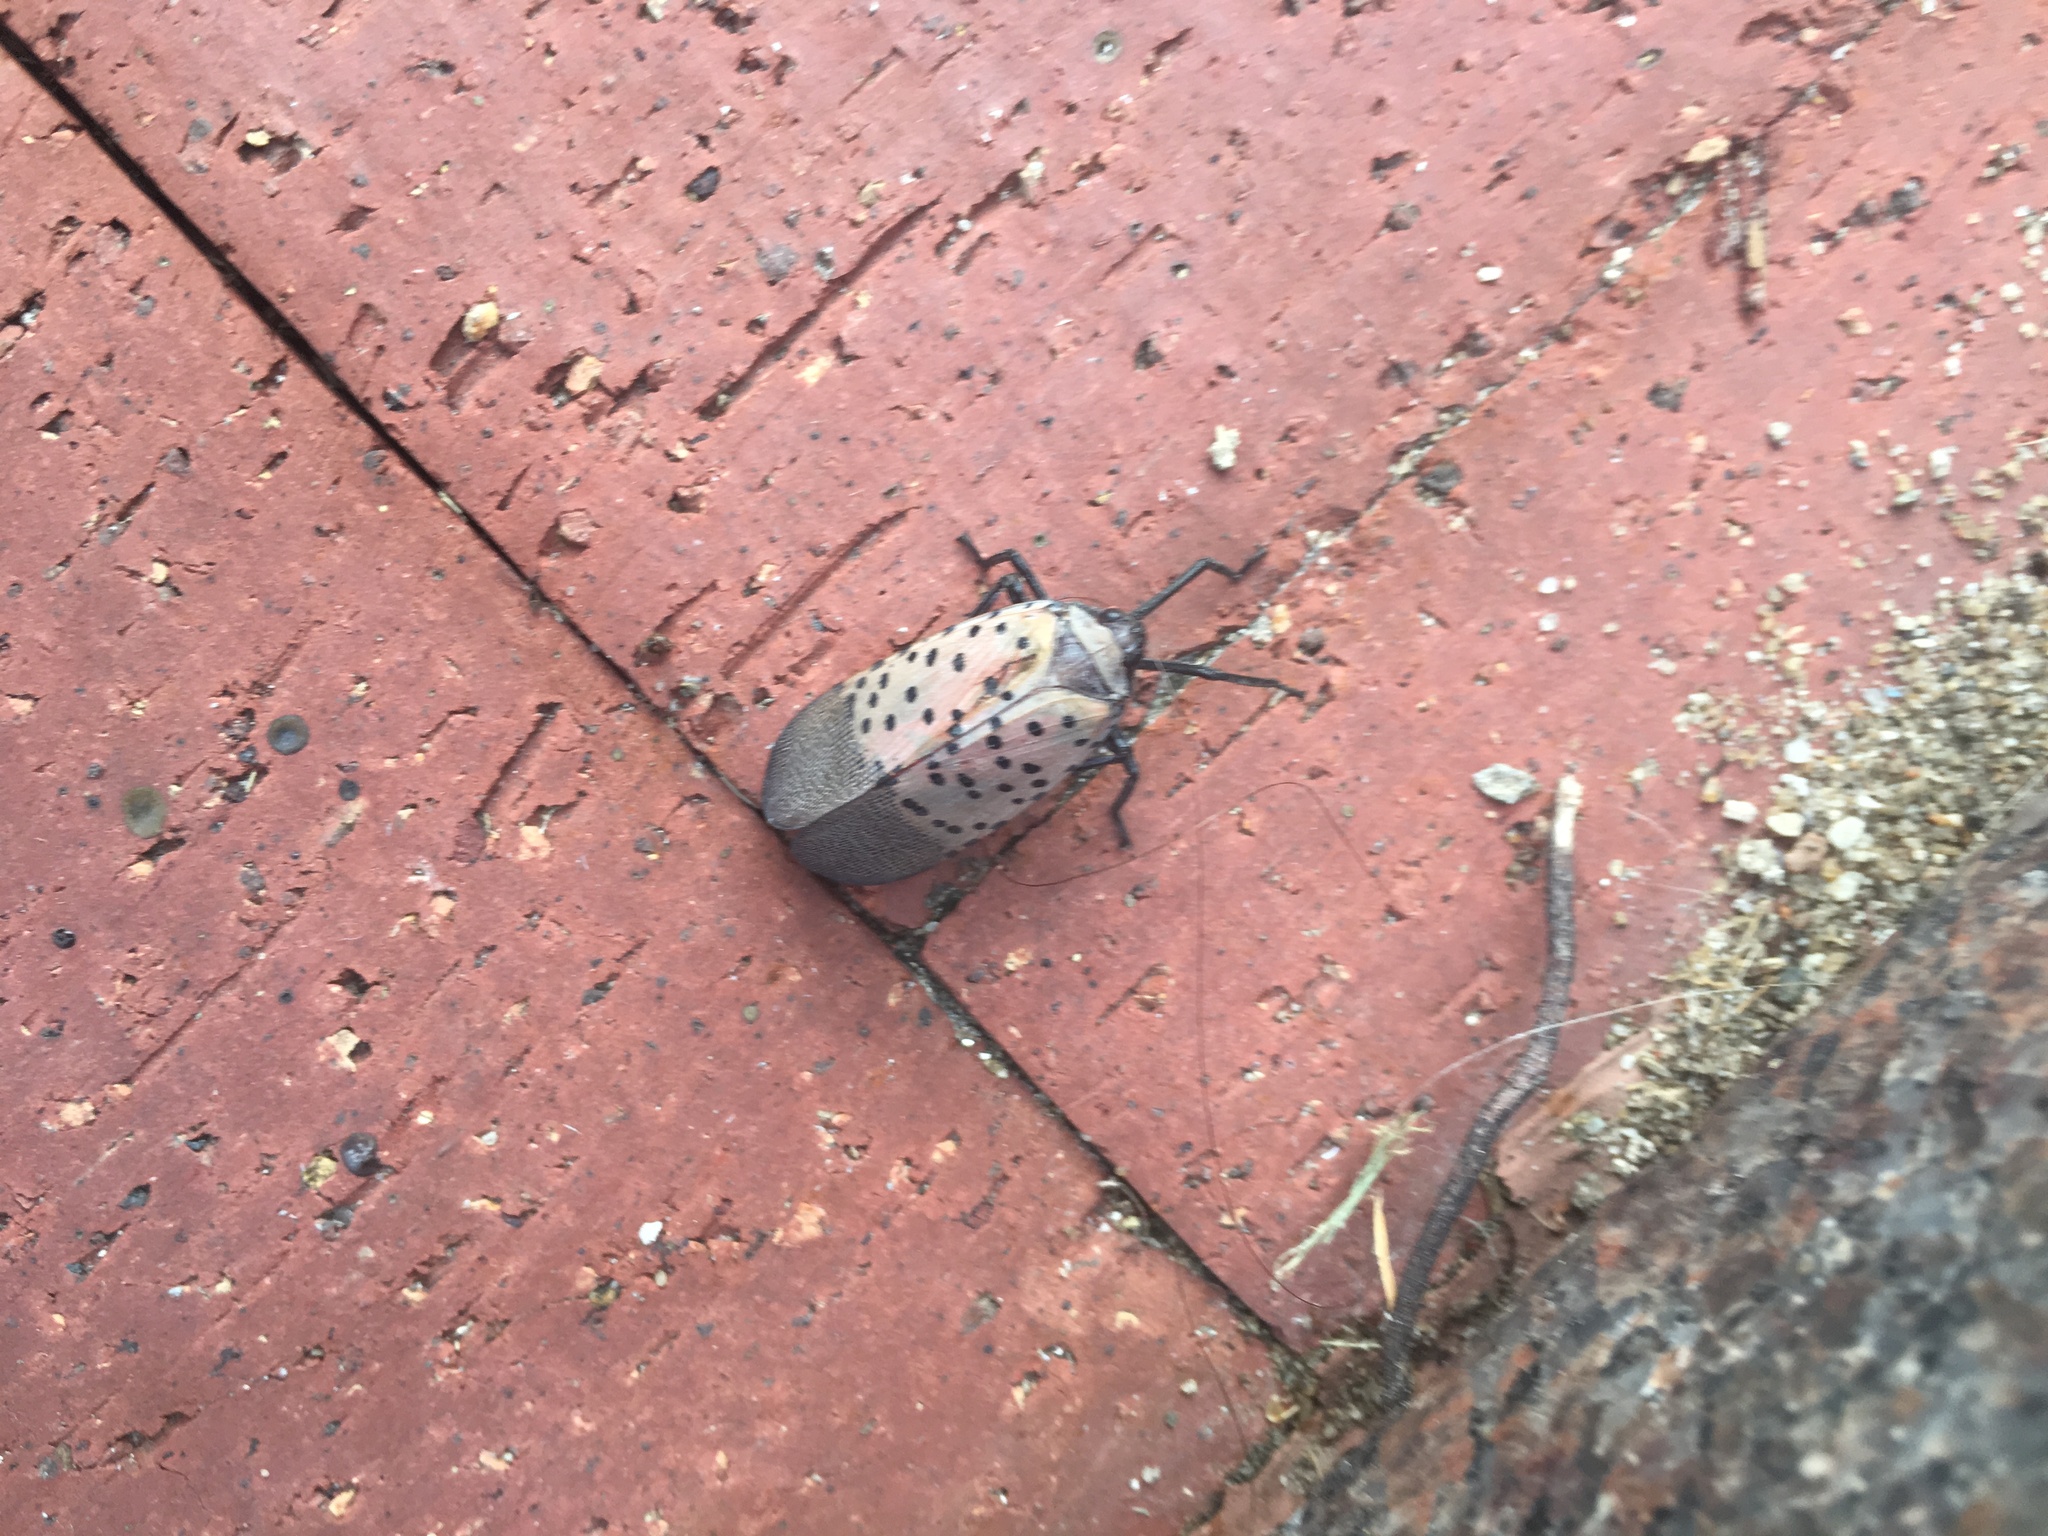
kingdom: Animalia
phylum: Arthropoda
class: Insecta
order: Hemiptera
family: Fulgoridae
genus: Lycorma
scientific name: Lycorma delicatula
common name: Spotted lanternfly
